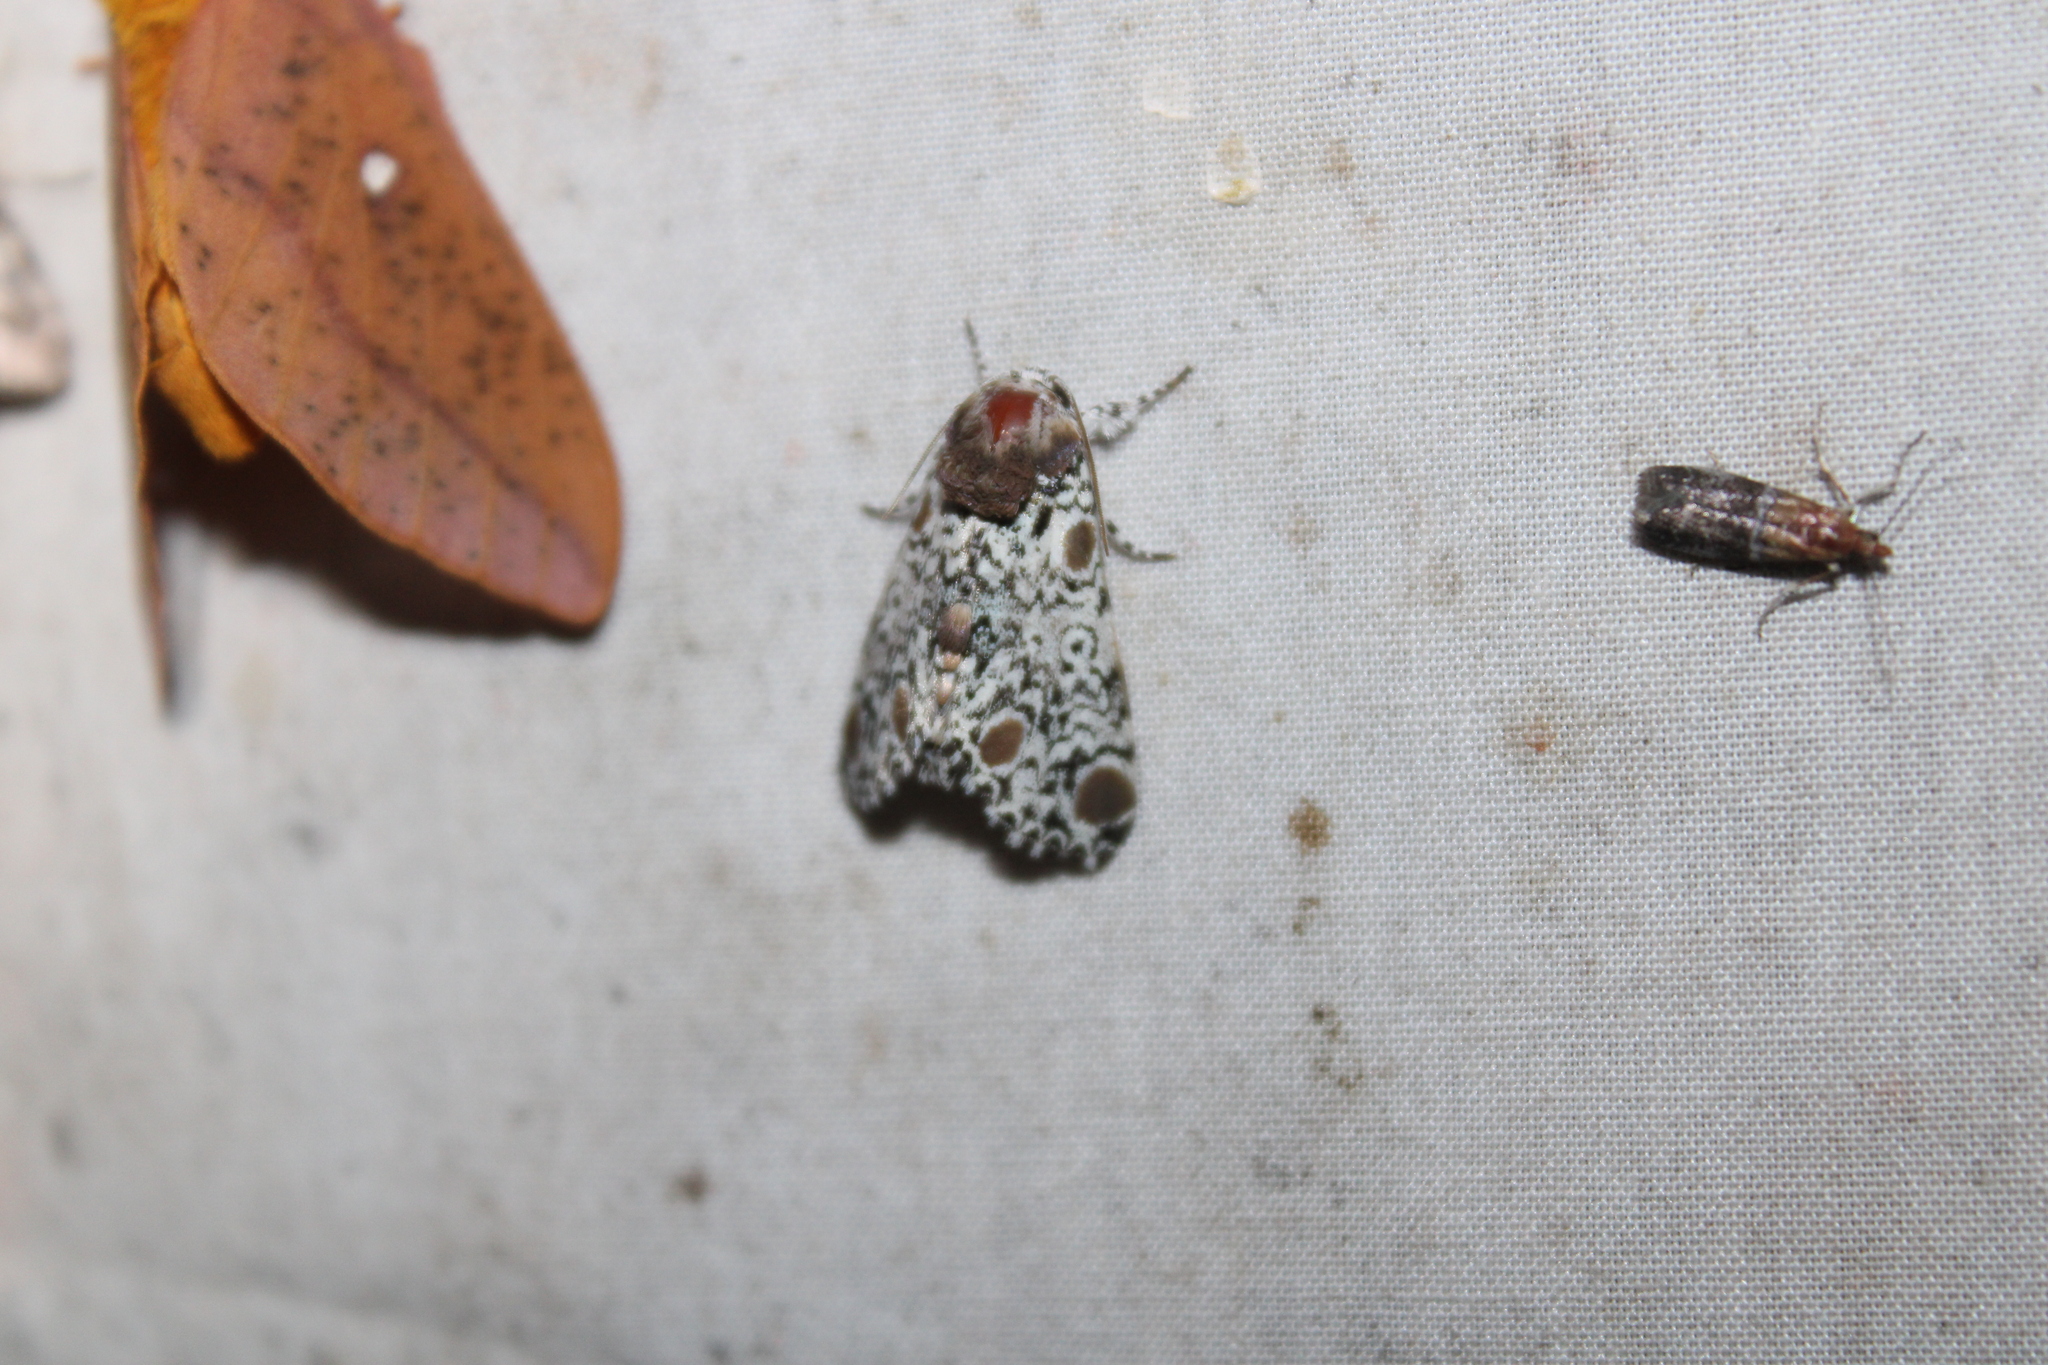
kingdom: Animalia
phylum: Arthropoda
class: Insecta
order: Lepidoptera
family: Noctuidae
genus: Harrisimemna
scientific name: Harrisimemna trisignata
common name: Harris threespot
